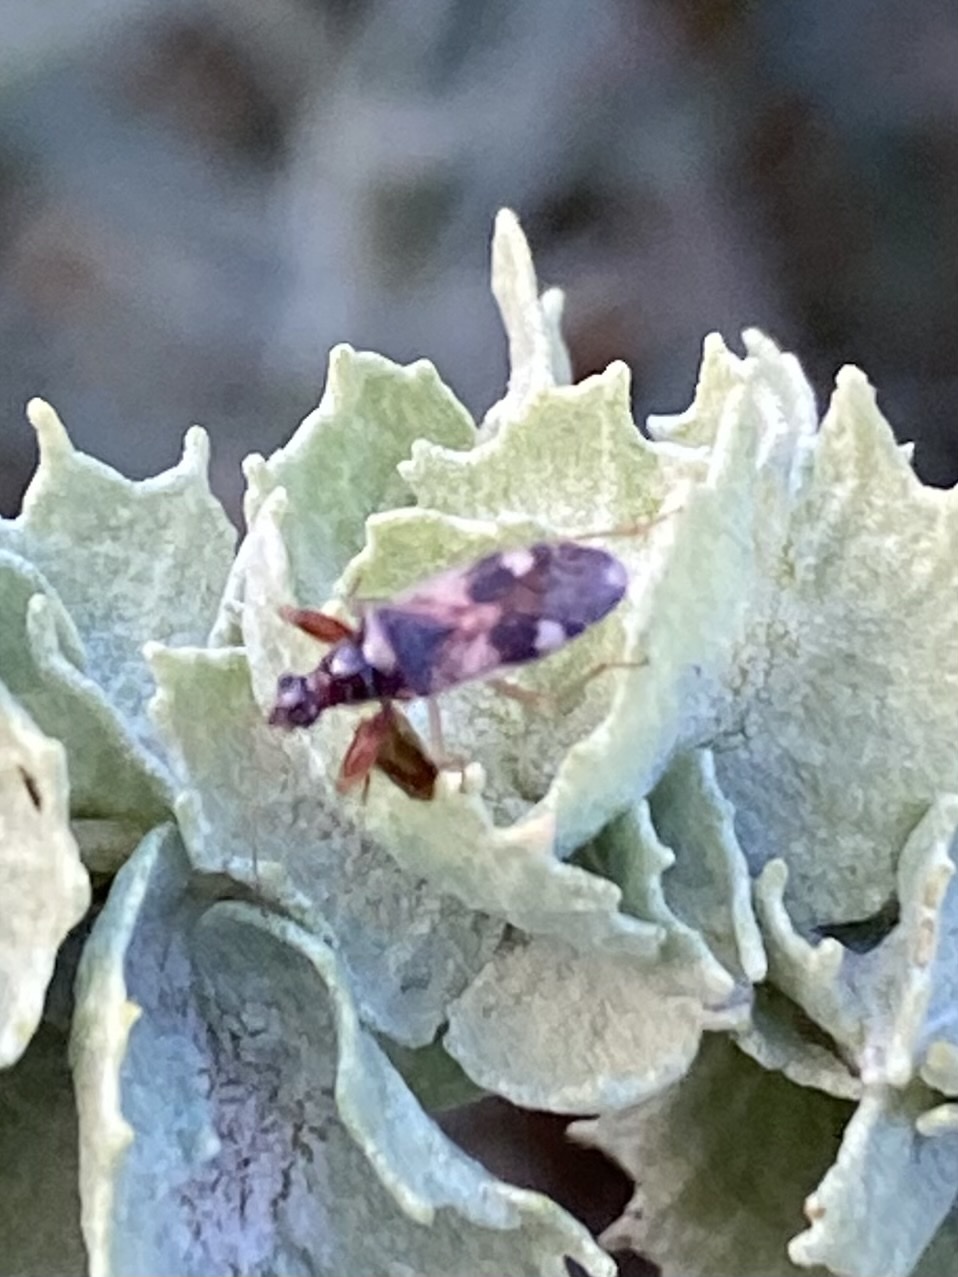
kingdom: Animalia
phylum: Arthropoda
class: Insecta
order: Hemiptera
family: Rhyparochromidae
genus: Pseudopamera
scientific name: Pseudopamera nitidula
